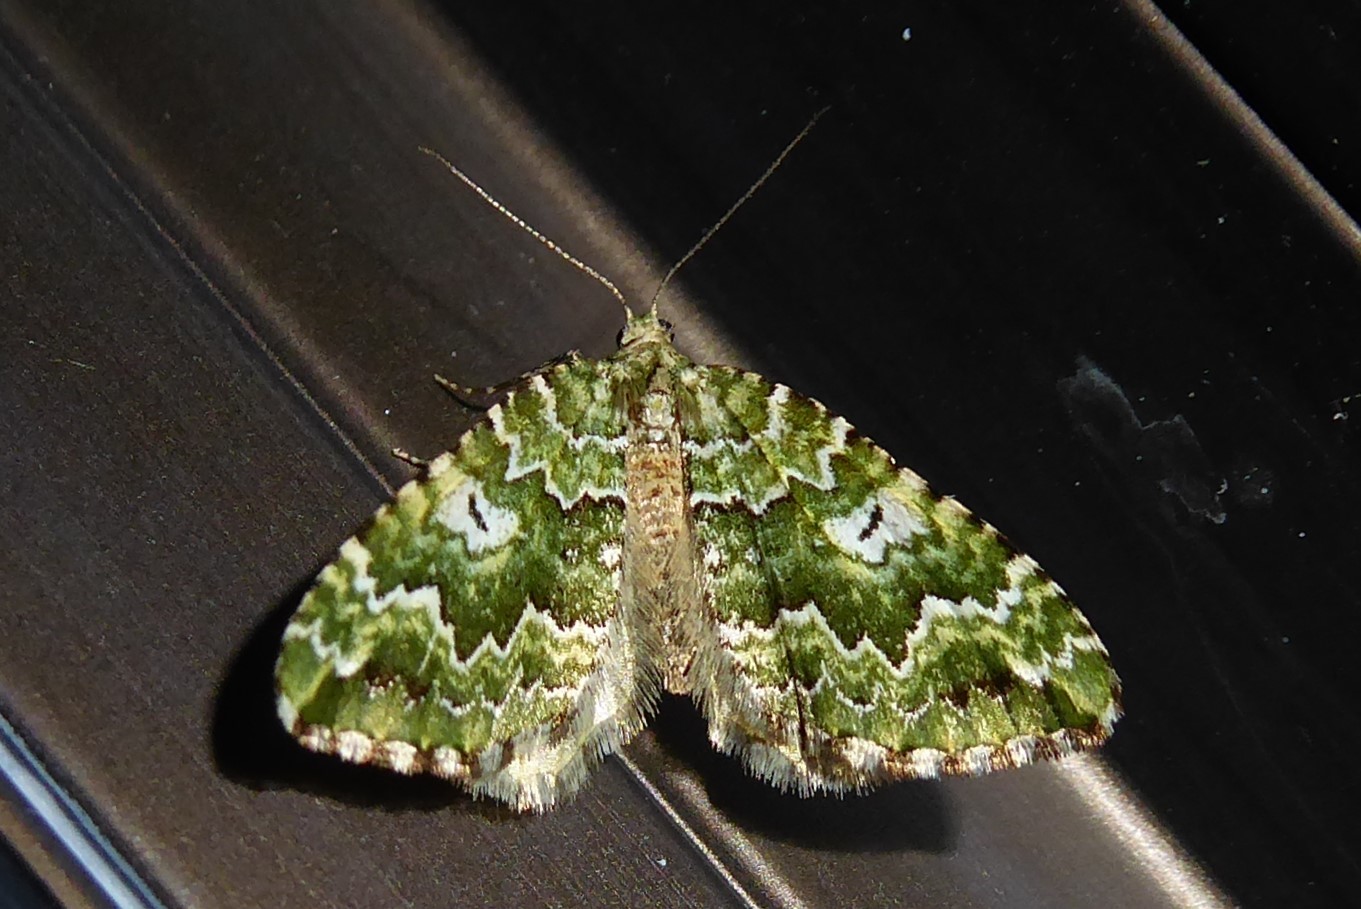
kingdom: Animalia
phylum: Arthropoda
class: Insecta
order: Lepidoptera
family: Geometridae
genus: Asaphodes
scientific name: Asaphodes beata
